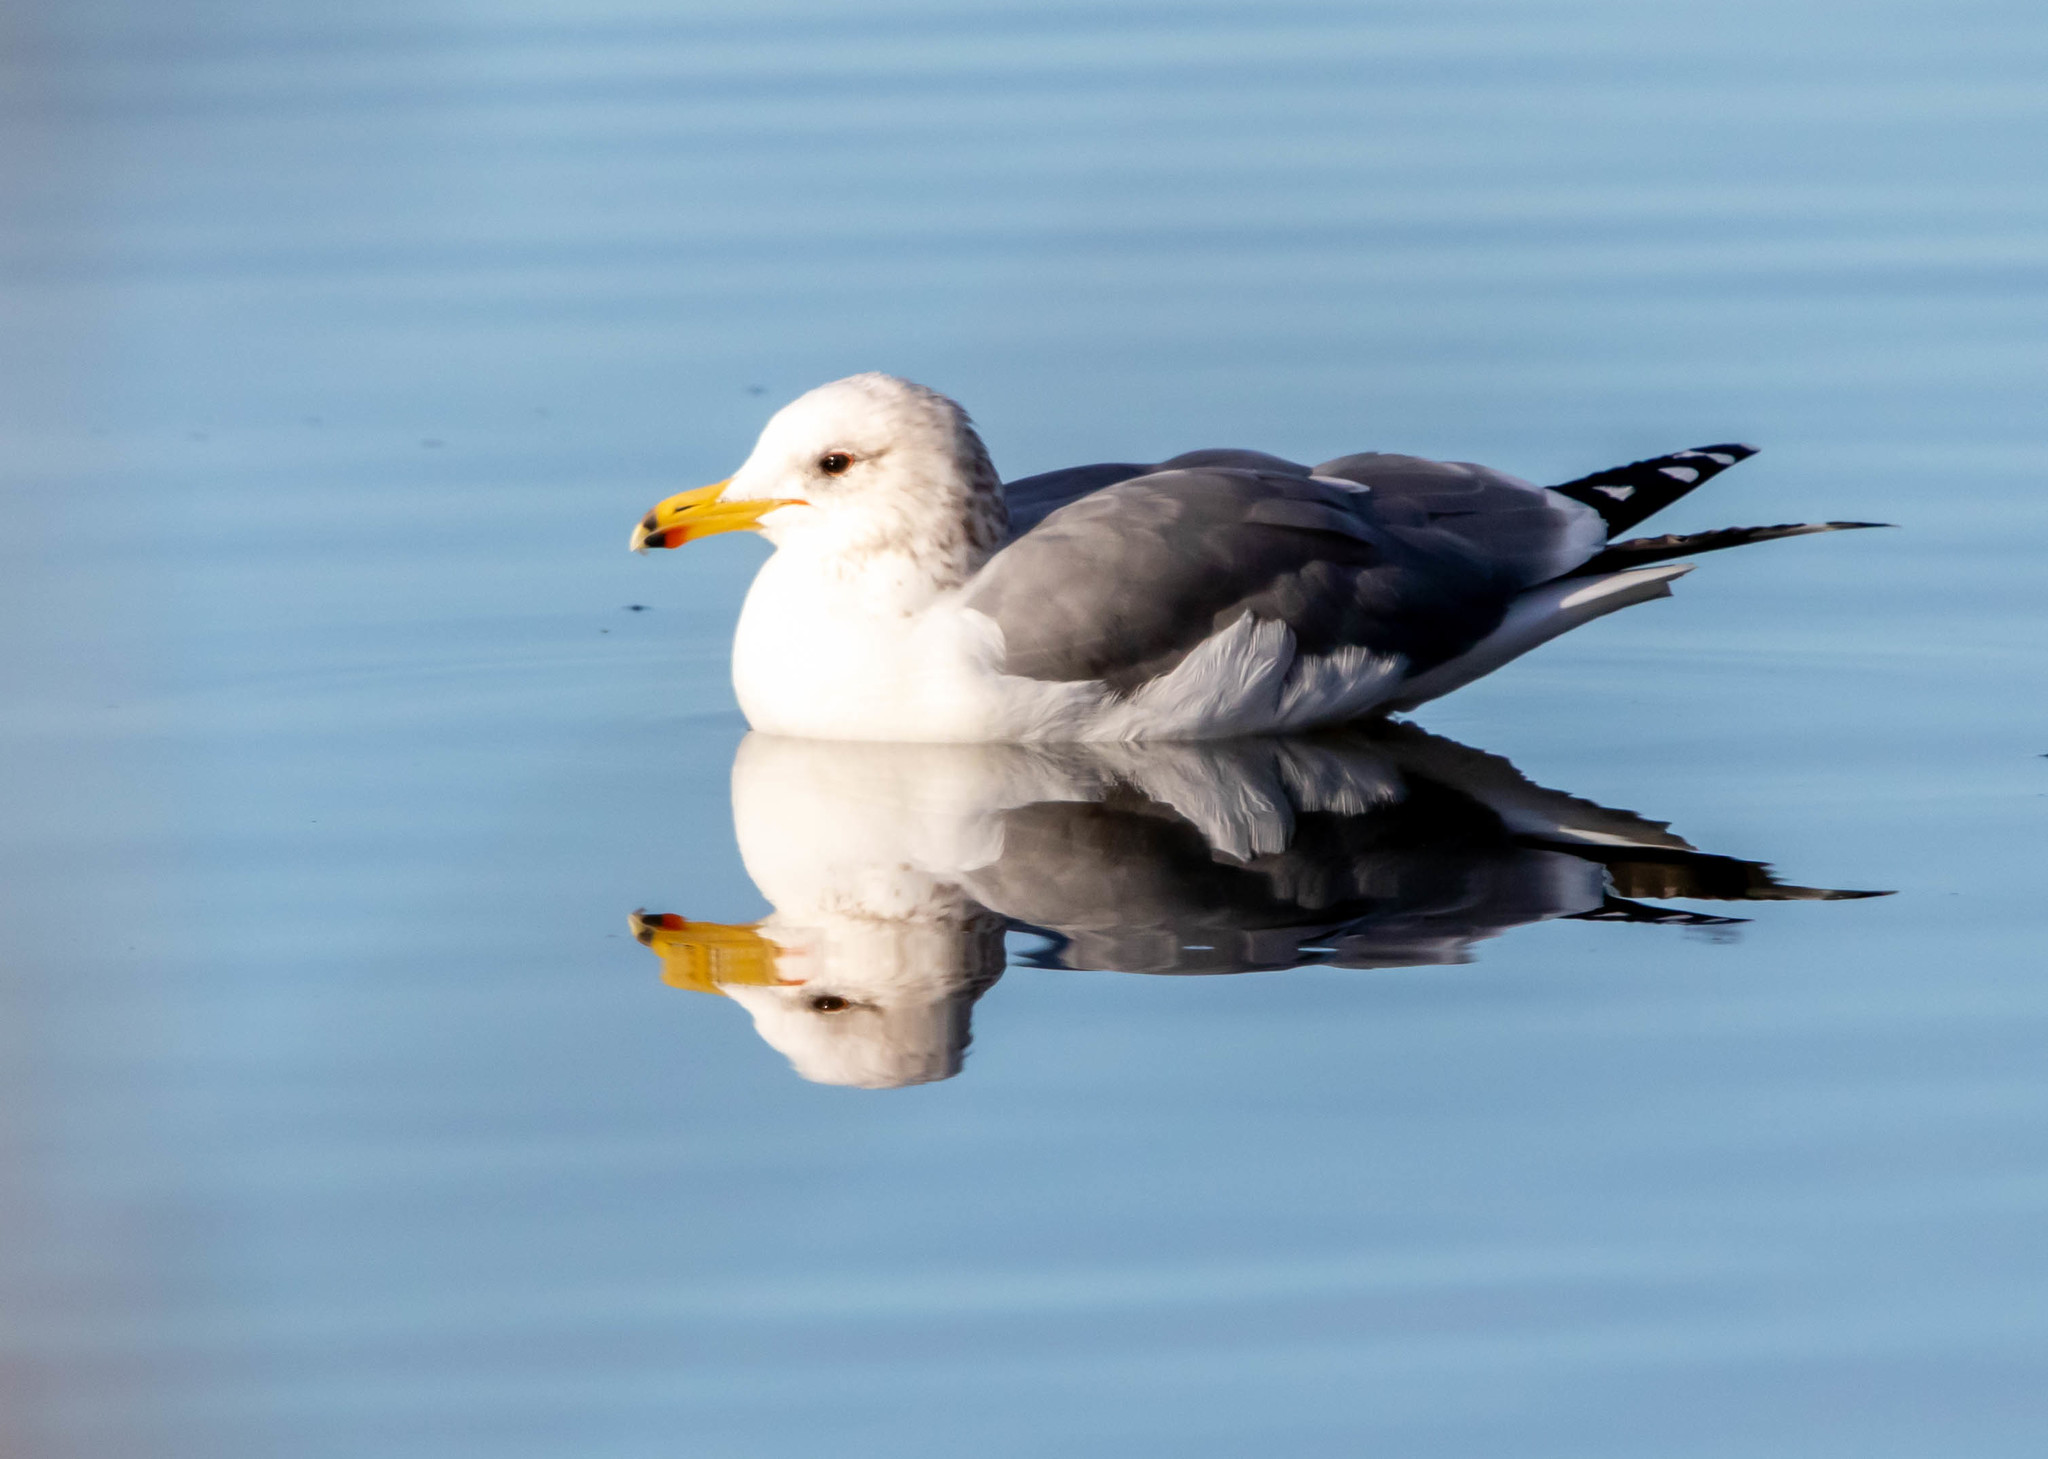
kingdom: Animalia
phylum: Chordata
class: Aves
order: Charadriiformes
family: Laridae
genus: Larus
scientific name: Larus californicus
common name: California gull
